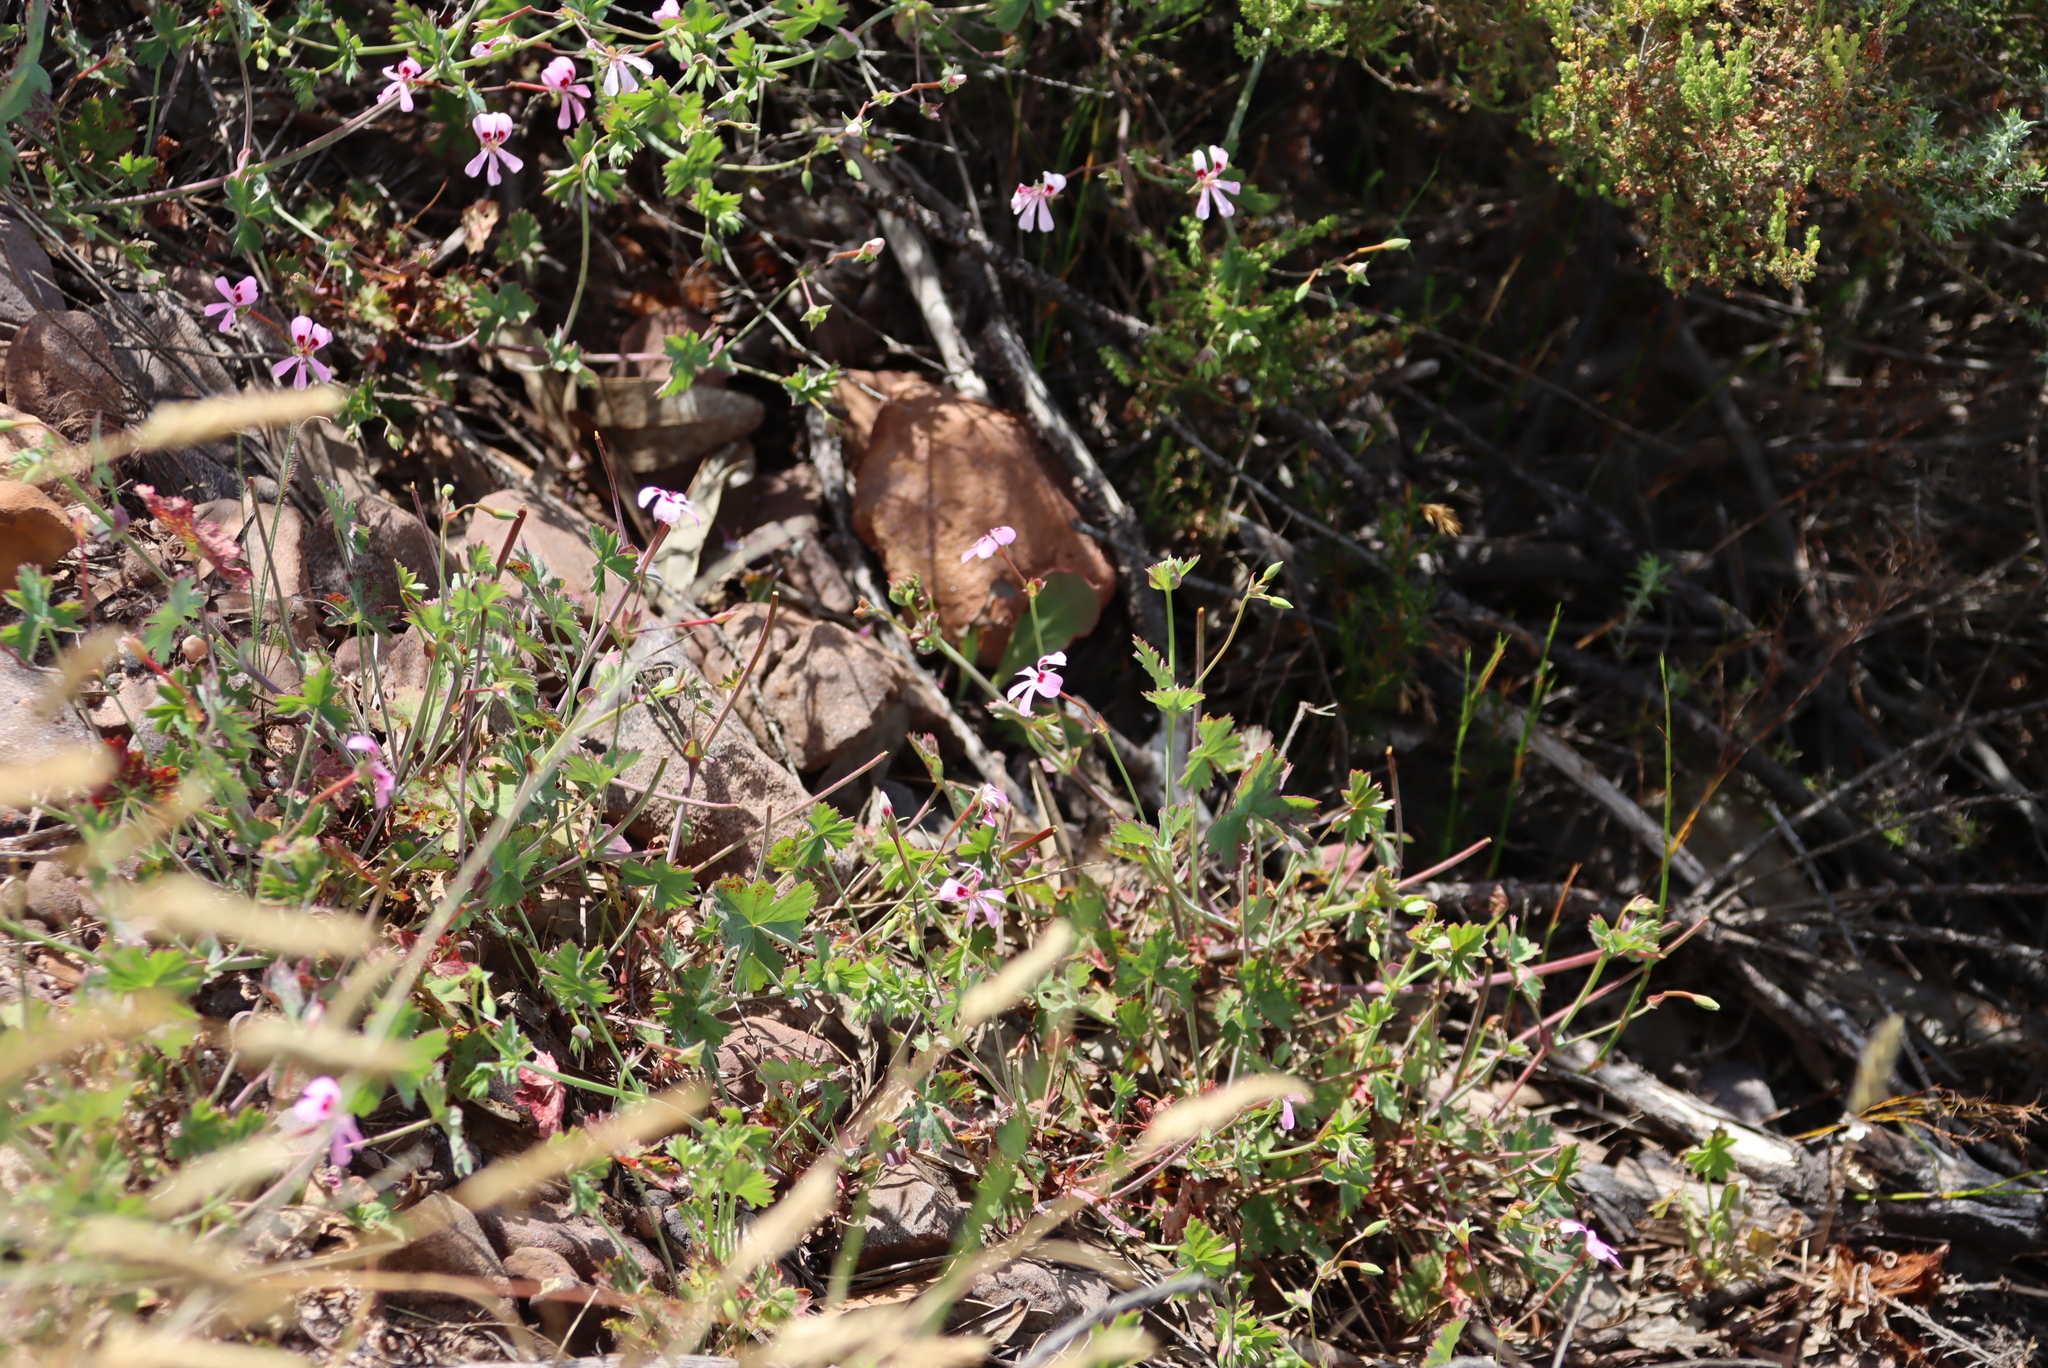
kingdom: Plantae
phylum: Tracheophyta
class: Magnoliopsida
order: Geraniales
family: Geraniaceae
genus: Pelargonium
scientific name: Pelargonium patulum
